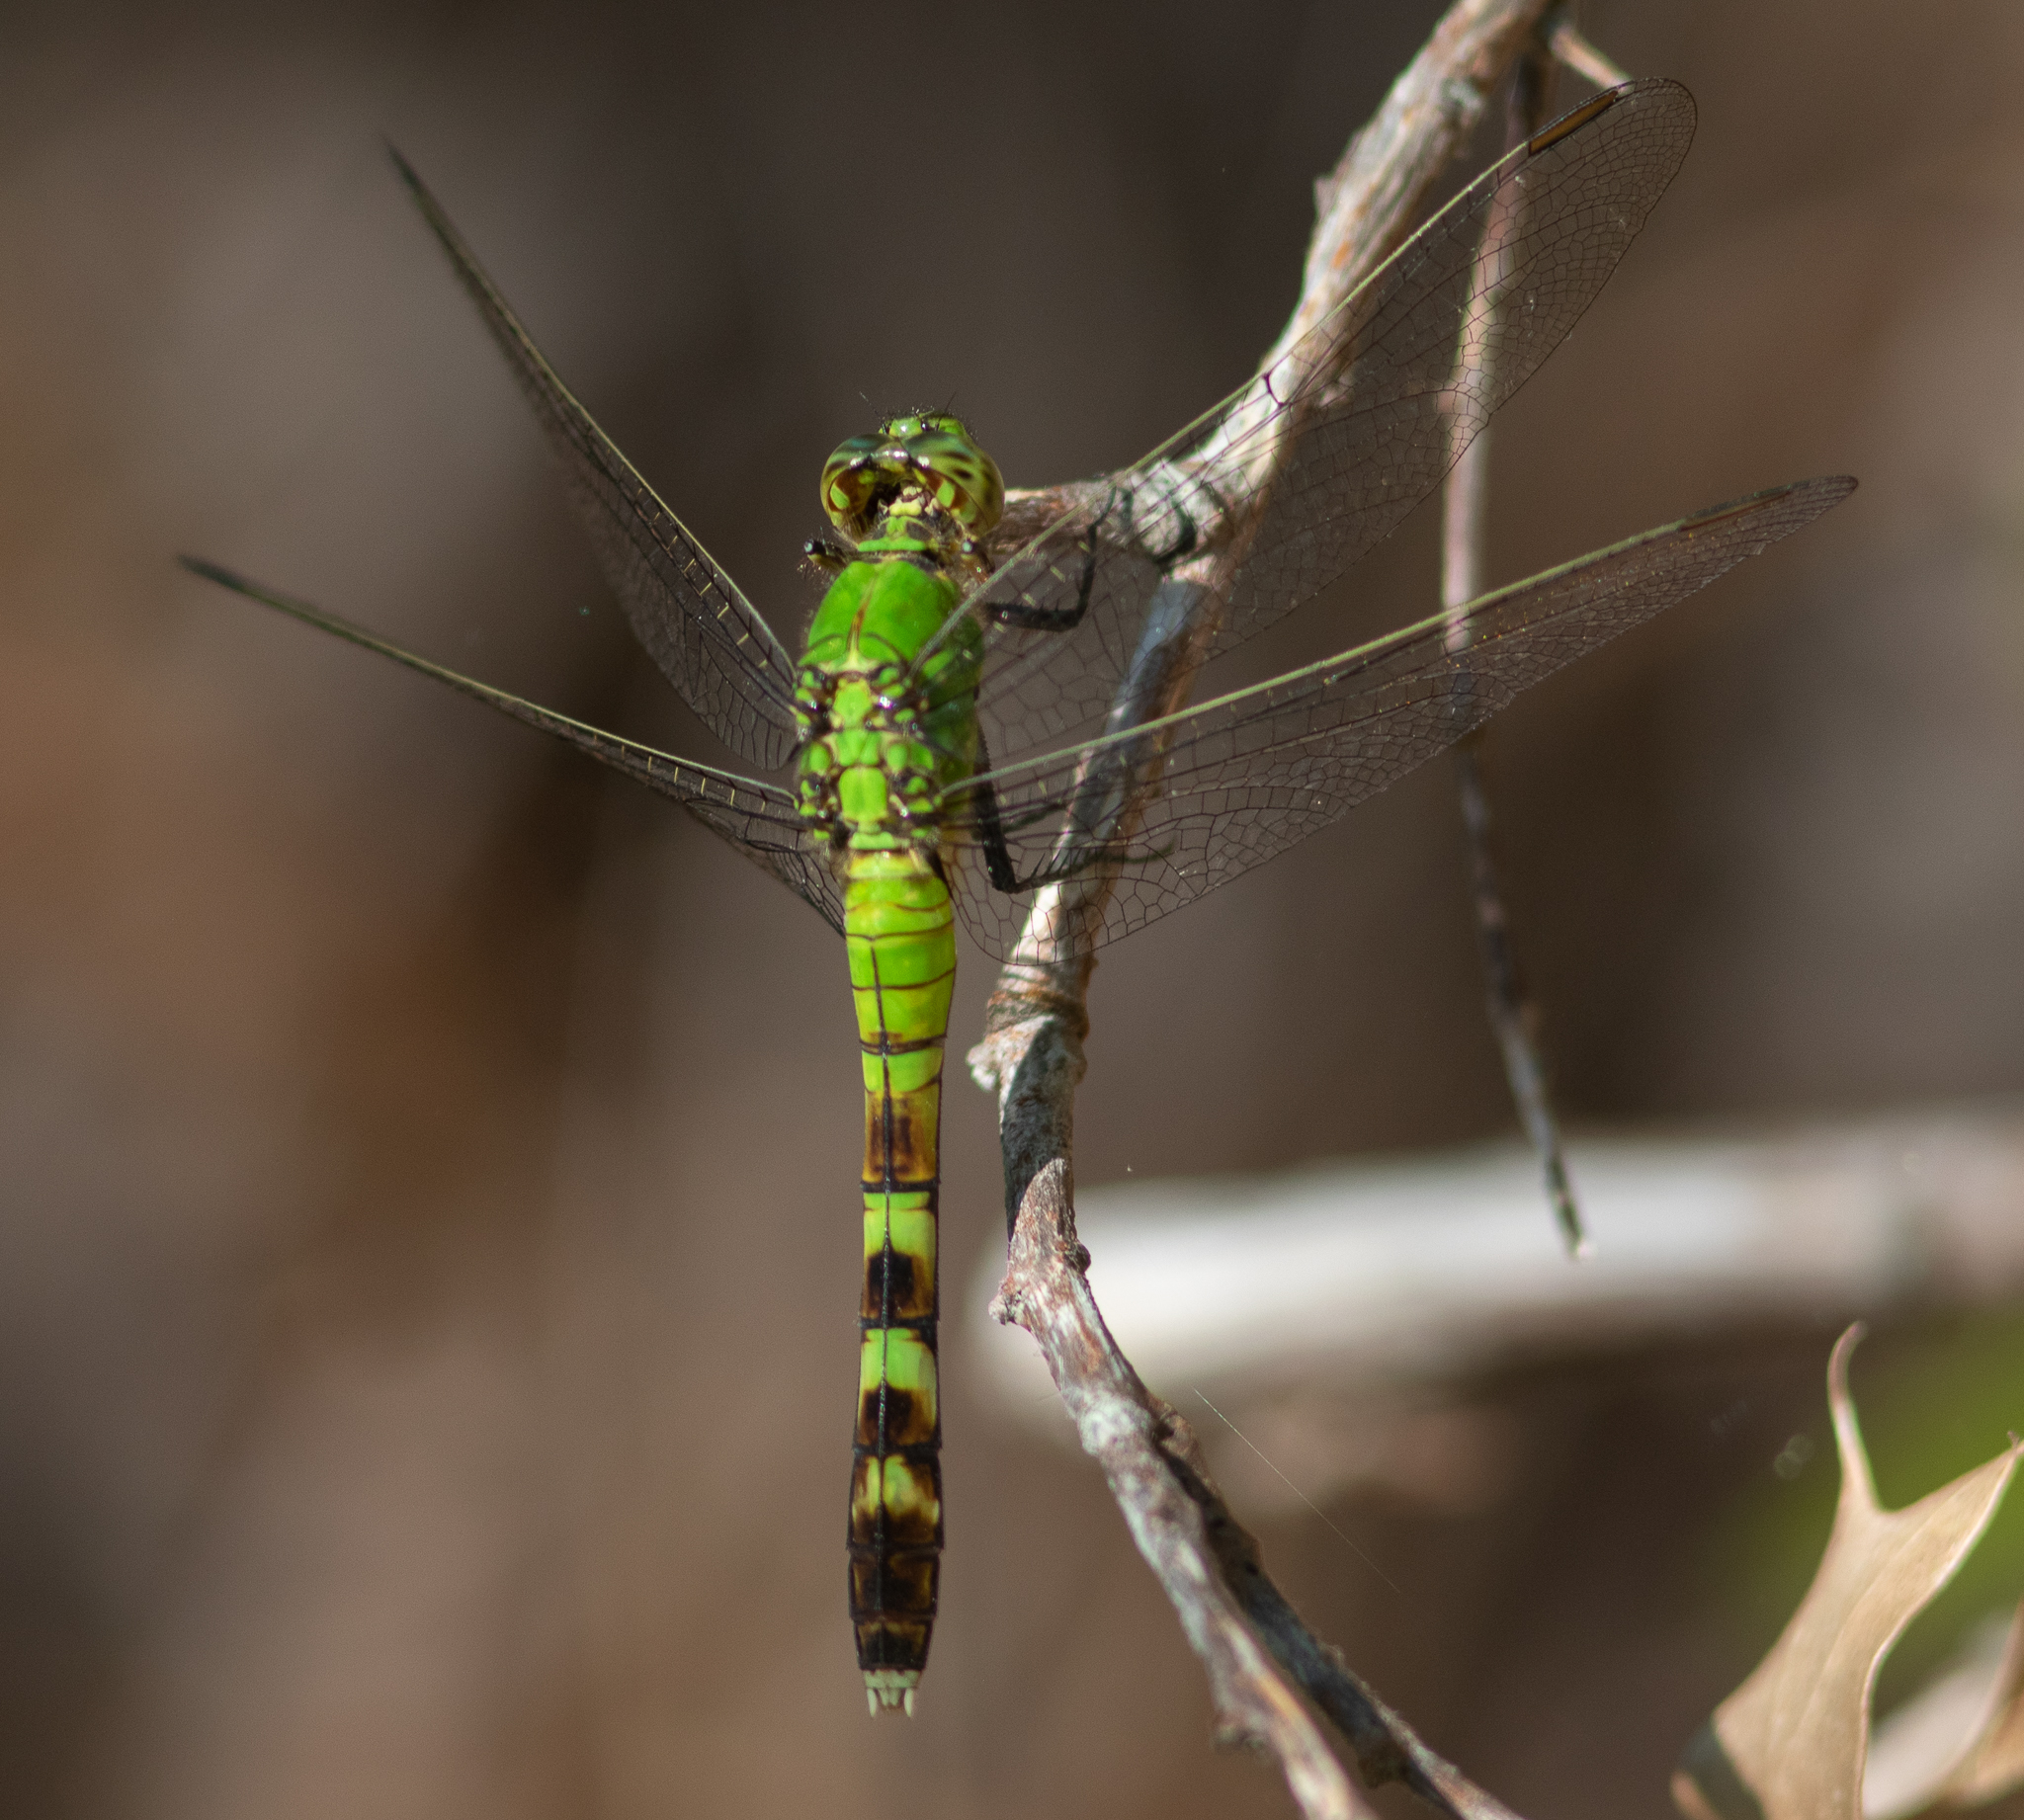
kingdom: Animalia
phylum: Arthropoda
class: Insecta
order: Odonata
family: Libellulidae
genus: Erythemis
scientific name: Erythemis simplicicollis
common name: Eastern pondhawk
